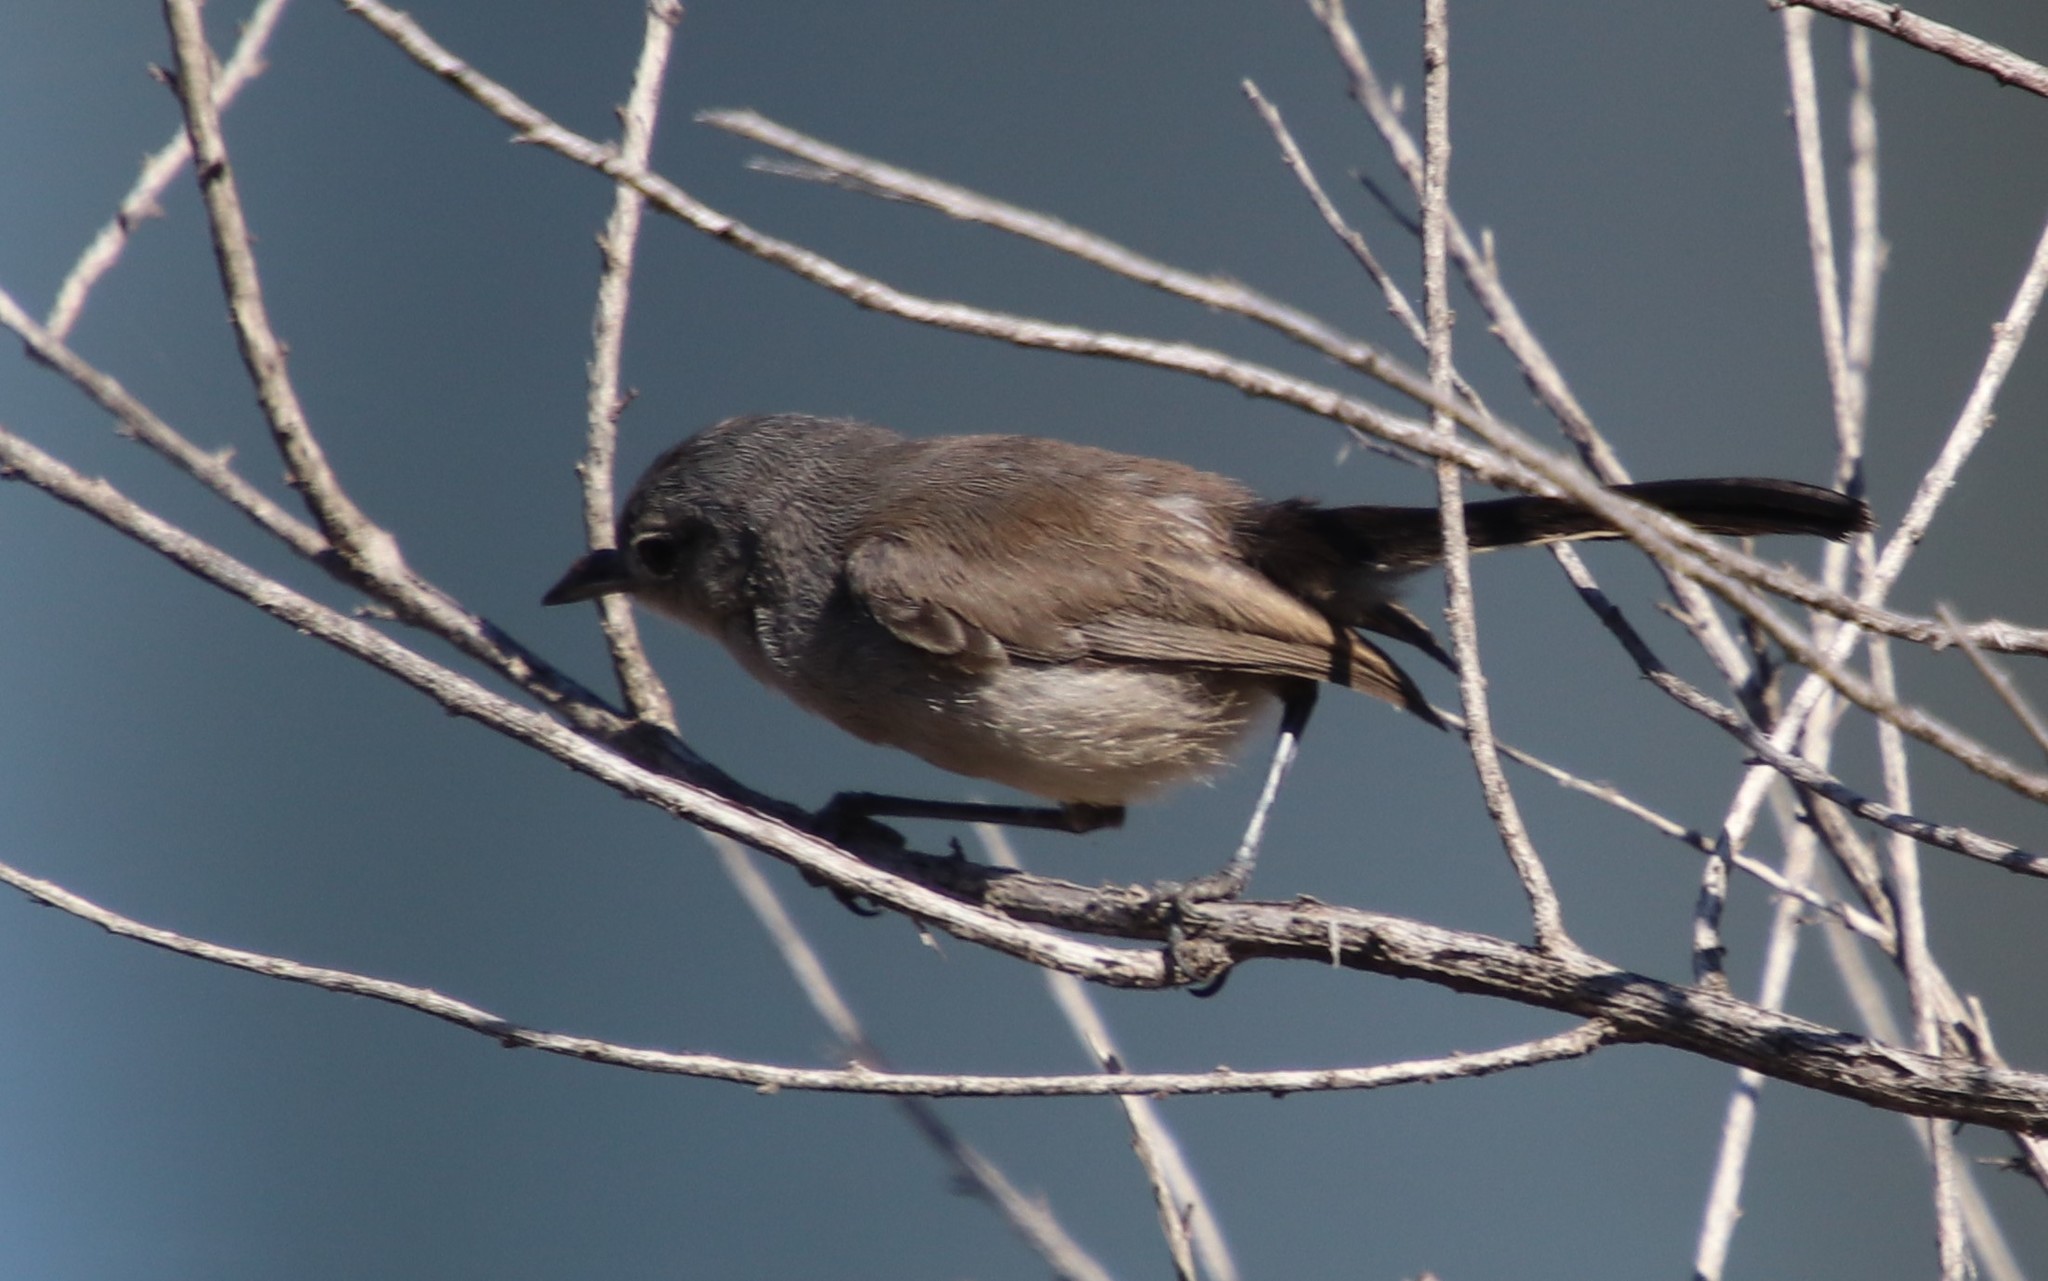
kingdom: Animalia
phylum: Chordata
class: Aves
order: Passeriformes
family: Polioptilidae
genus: Polioptila
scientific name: Polioptila californica
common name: California gnatcatcher
